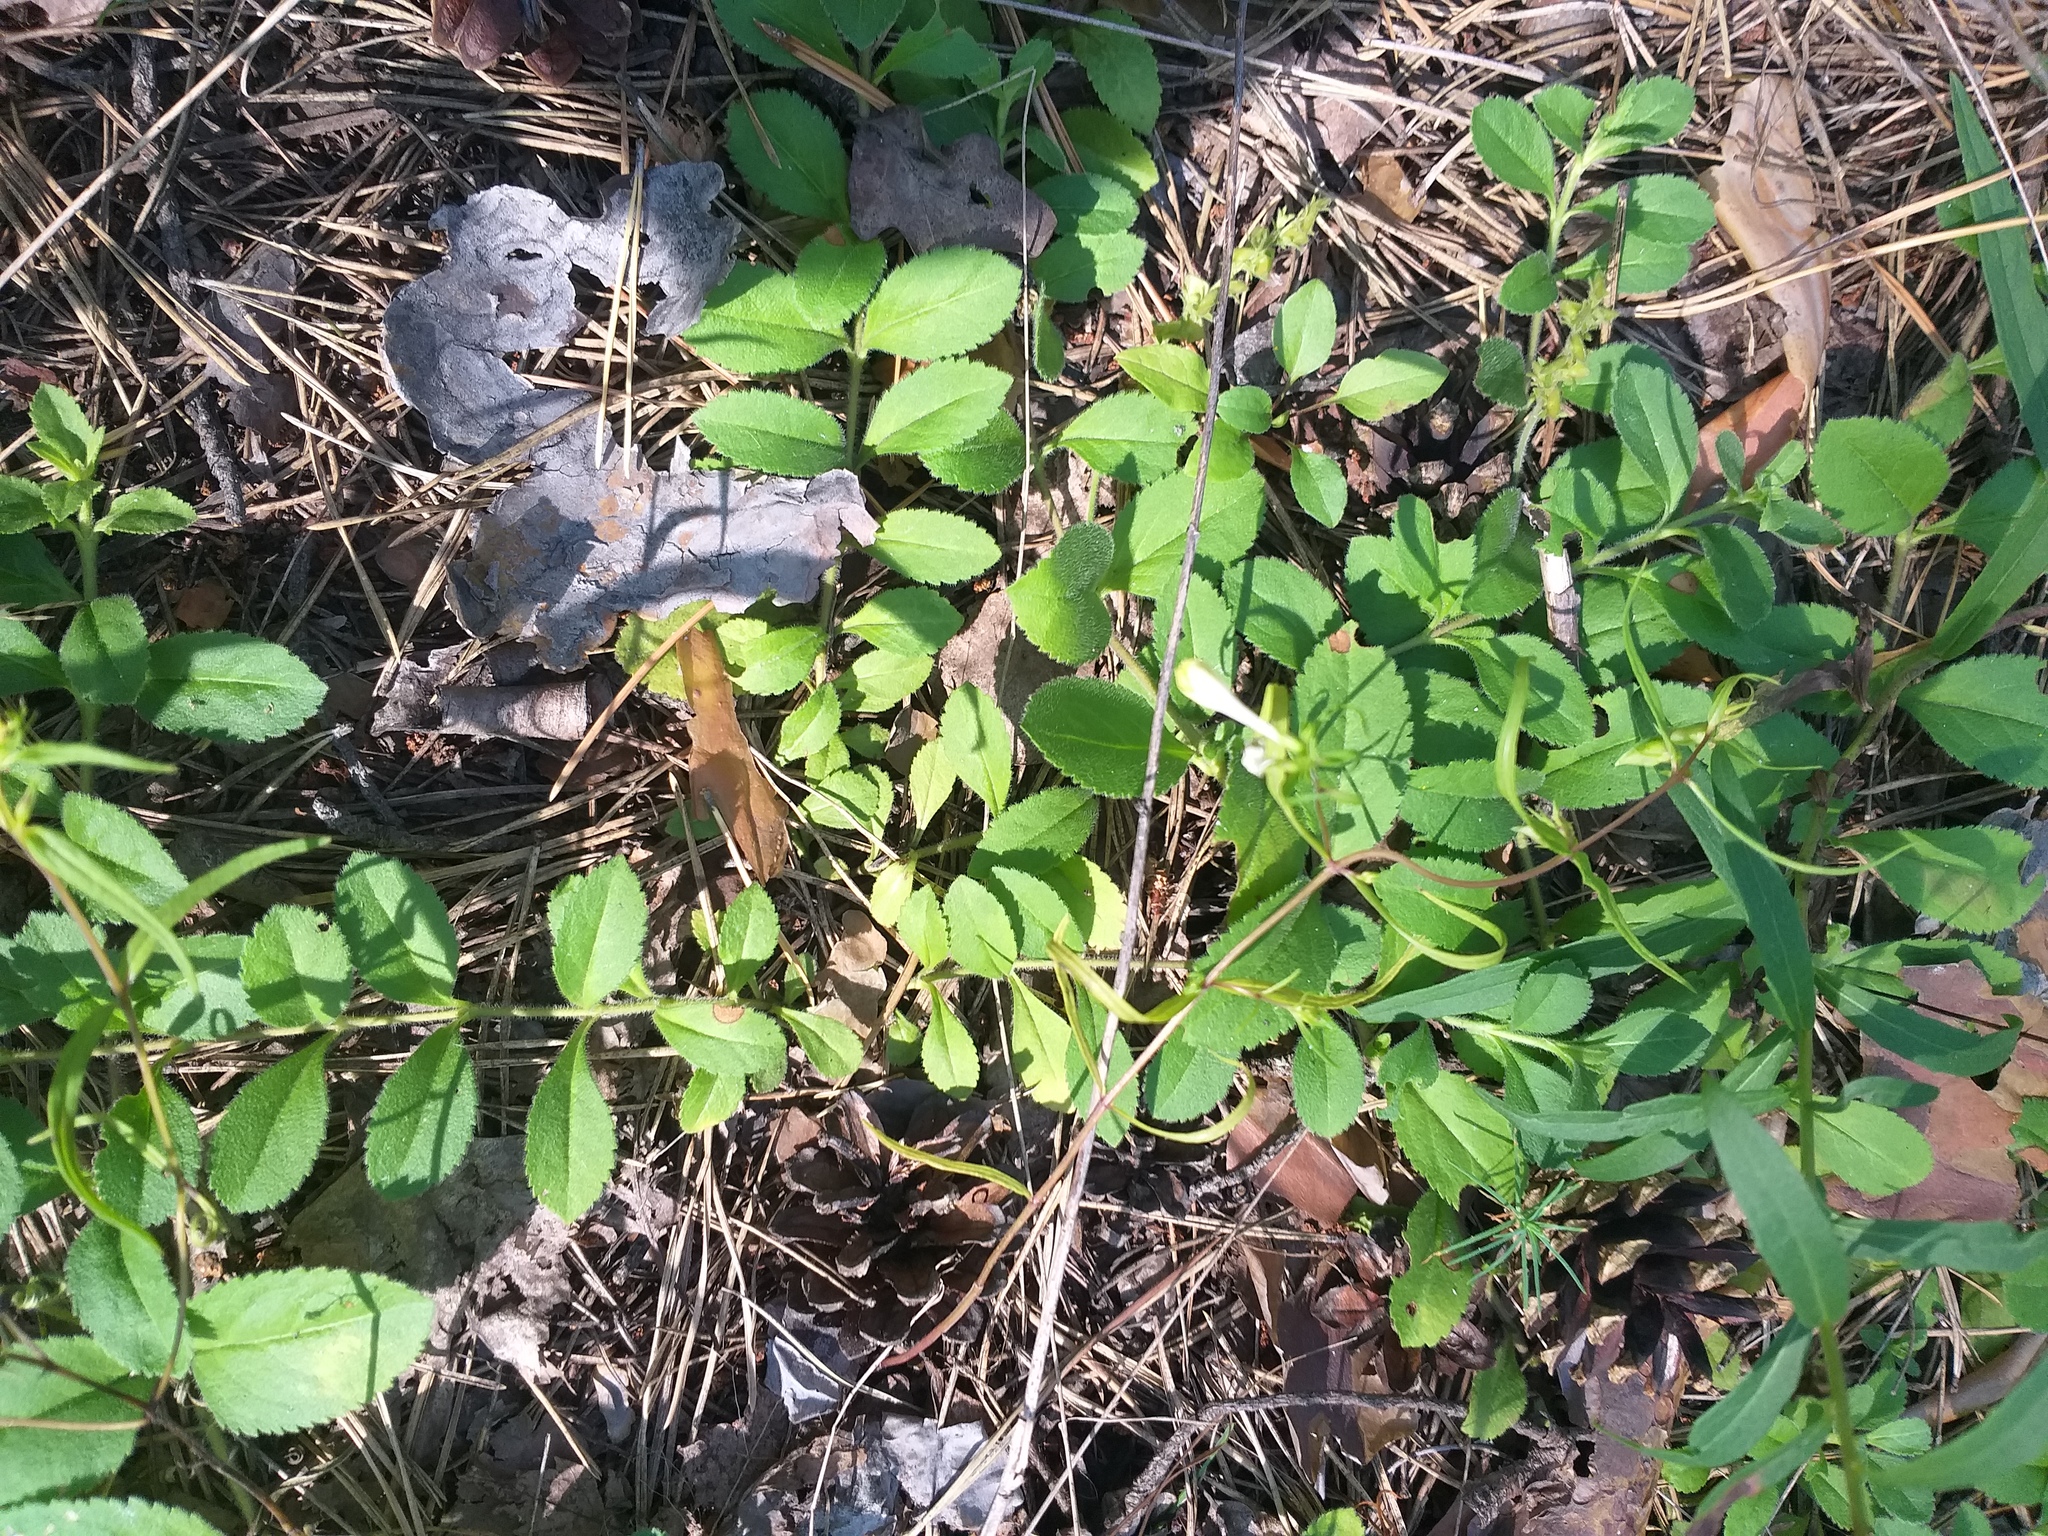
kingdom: Plantae
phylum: Tracheophyta
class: Magnoliopsida
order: Lamiales
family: Plantaginaceae
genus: Veronica
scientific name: Veronica officinalis
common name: Common speedwell
